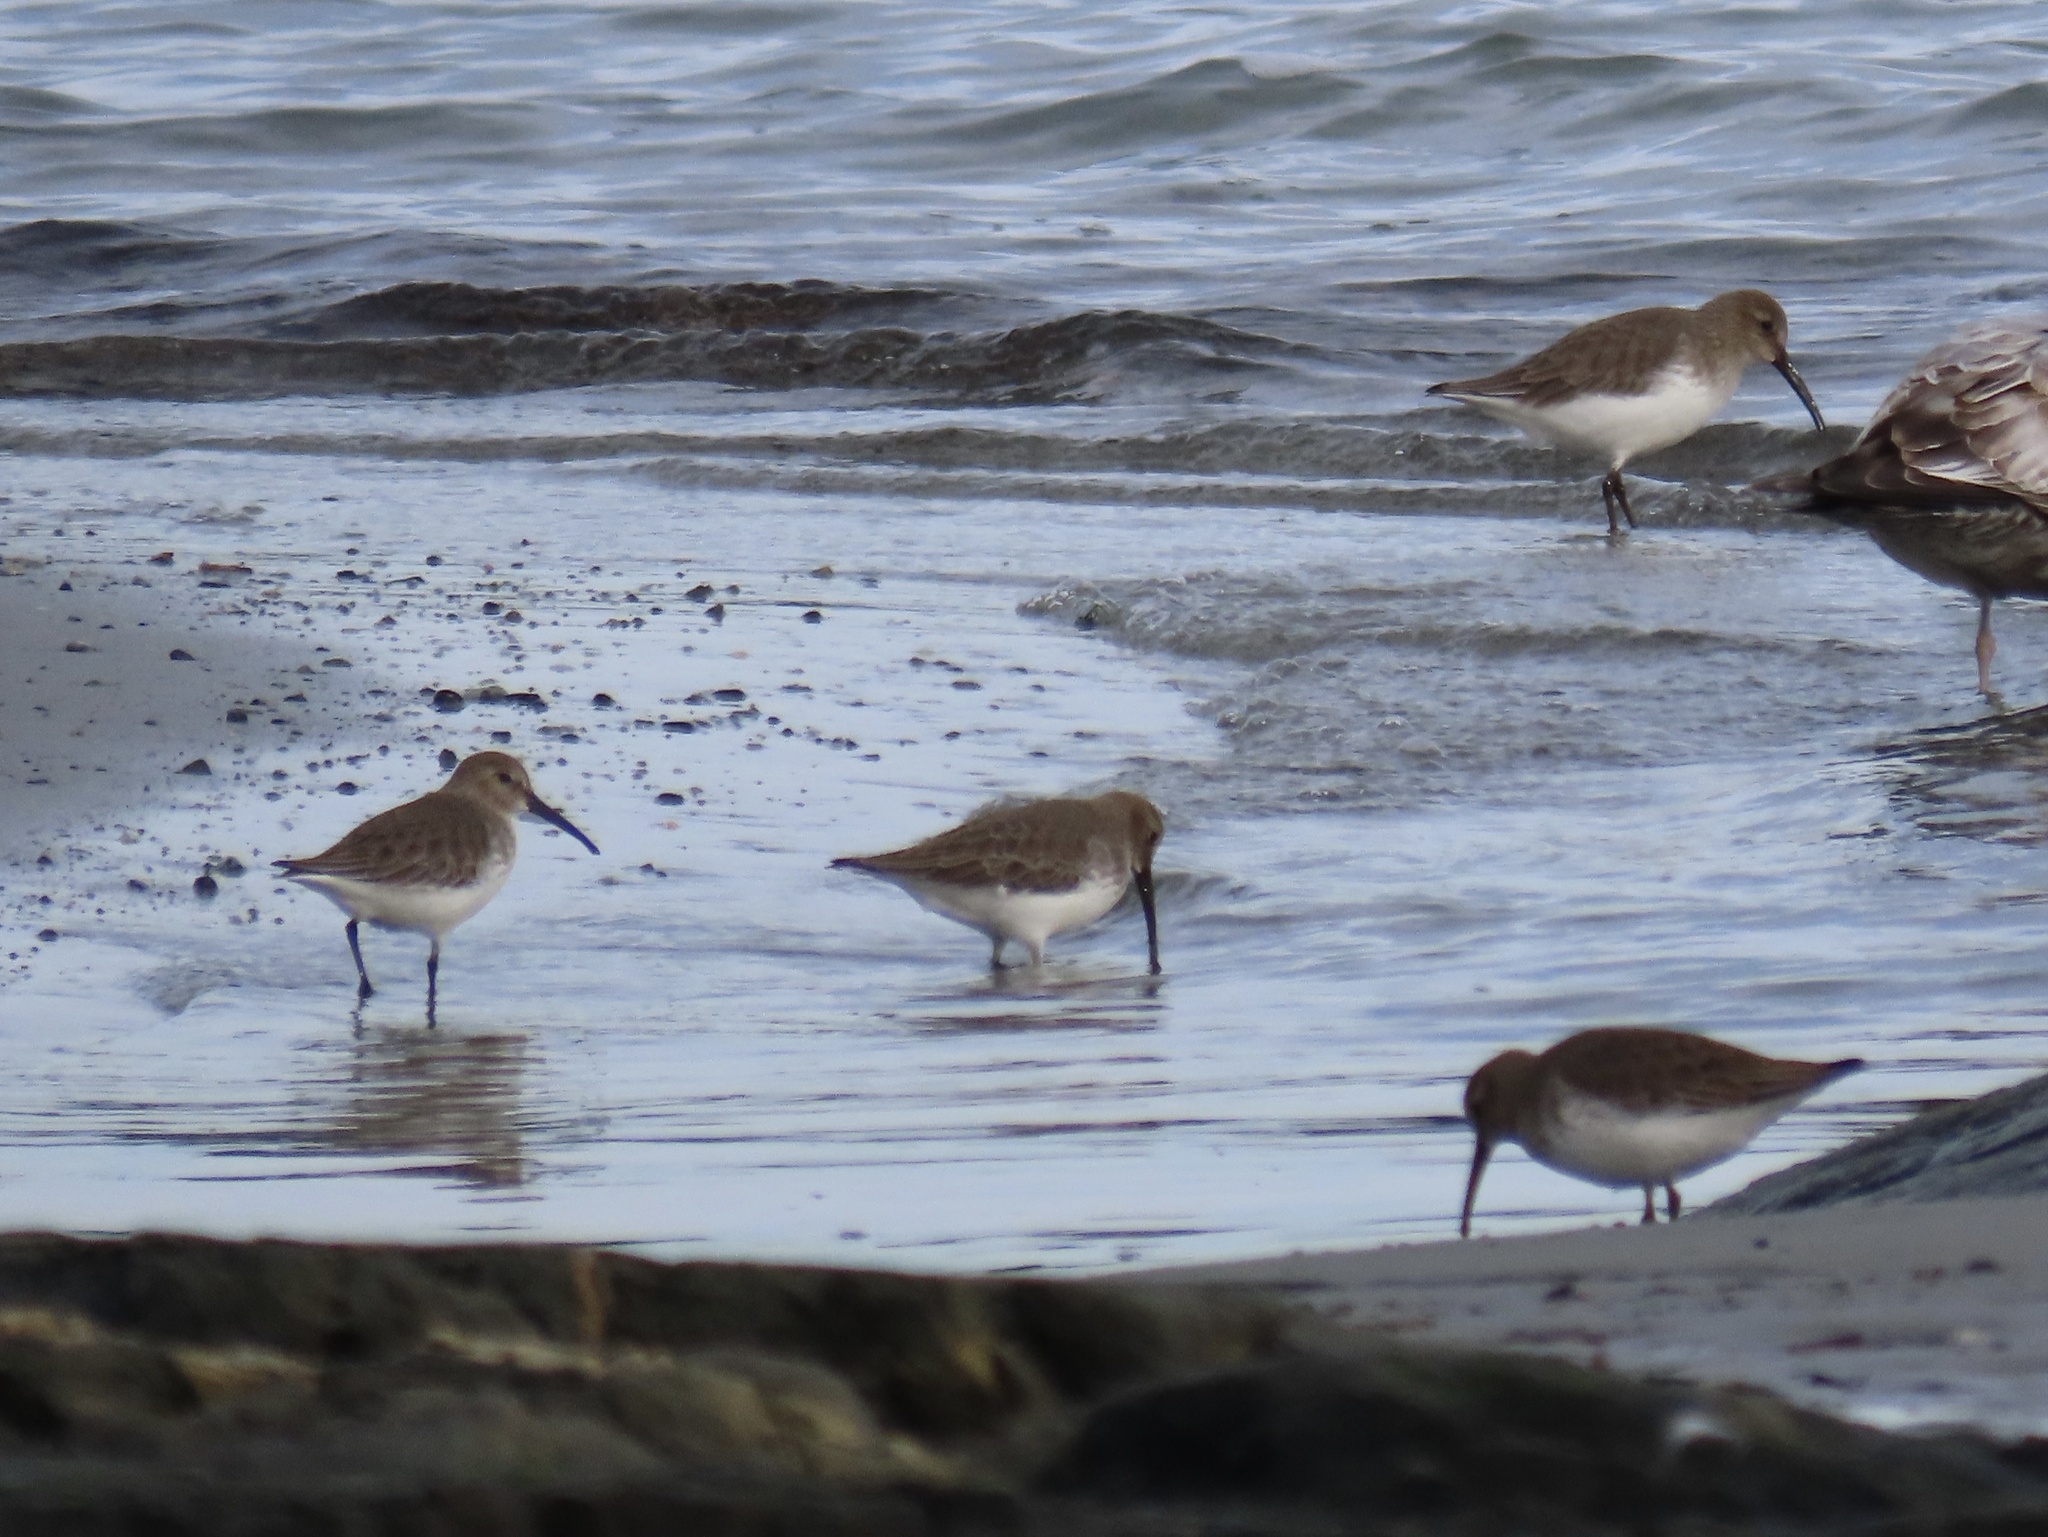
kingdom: Animalia
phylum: Chordata
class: Aves
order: Charadriiformes
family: Scolopacidae
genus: Calidris
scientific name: Calidris alpina
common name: Dunlin
